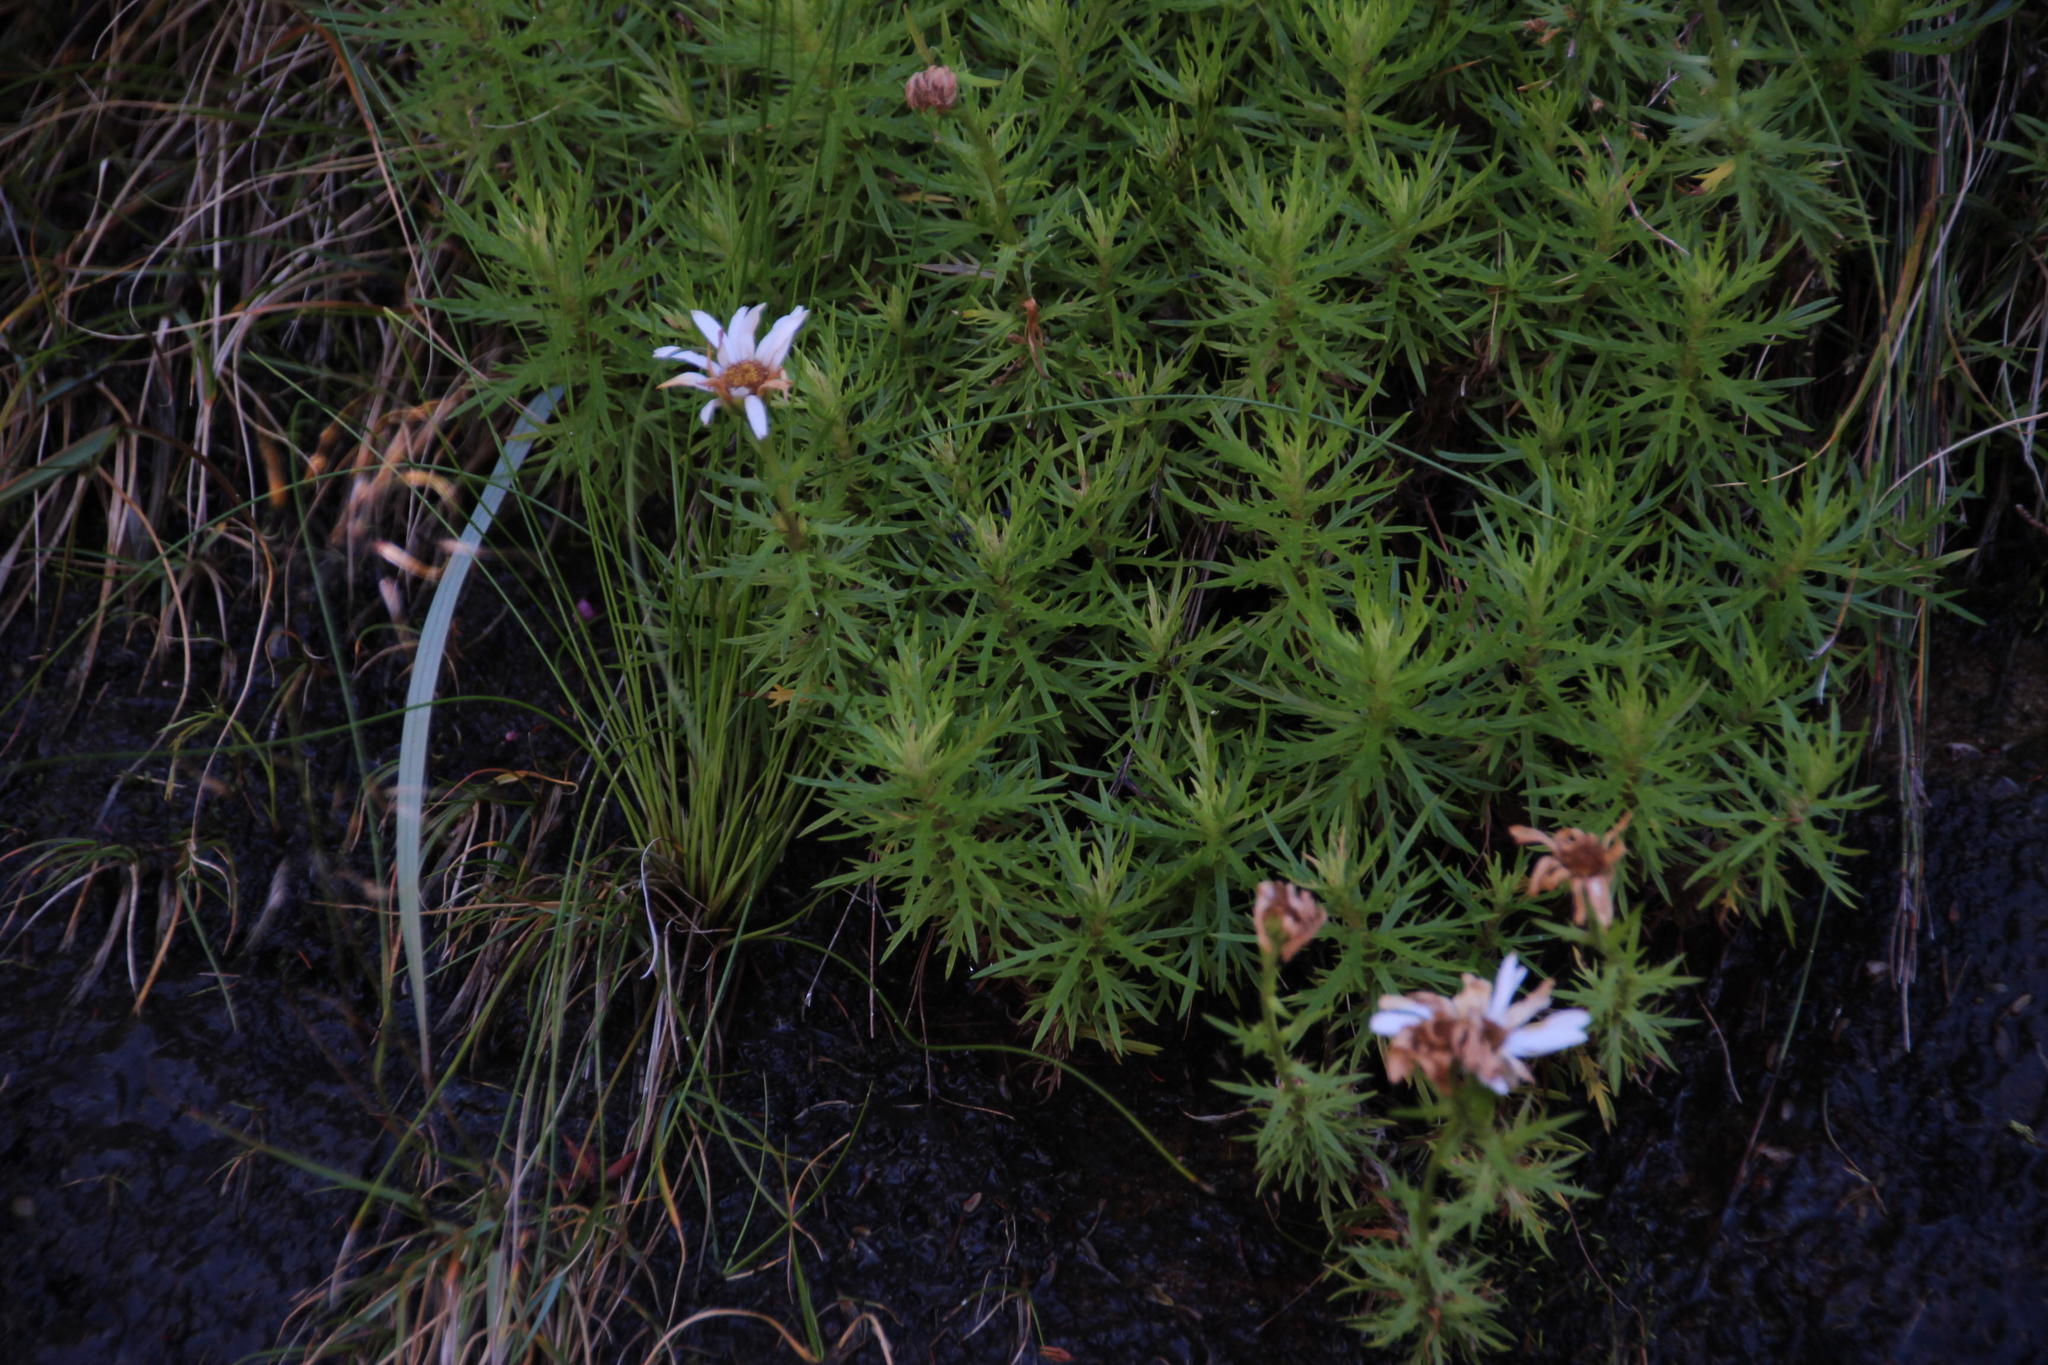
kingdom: Plantae
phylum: Tracheophyta
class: Magnoliopsida
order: Asterales
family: Asteraceae
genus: Osmitopsis
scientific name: Osmitopsis pinnatifida
